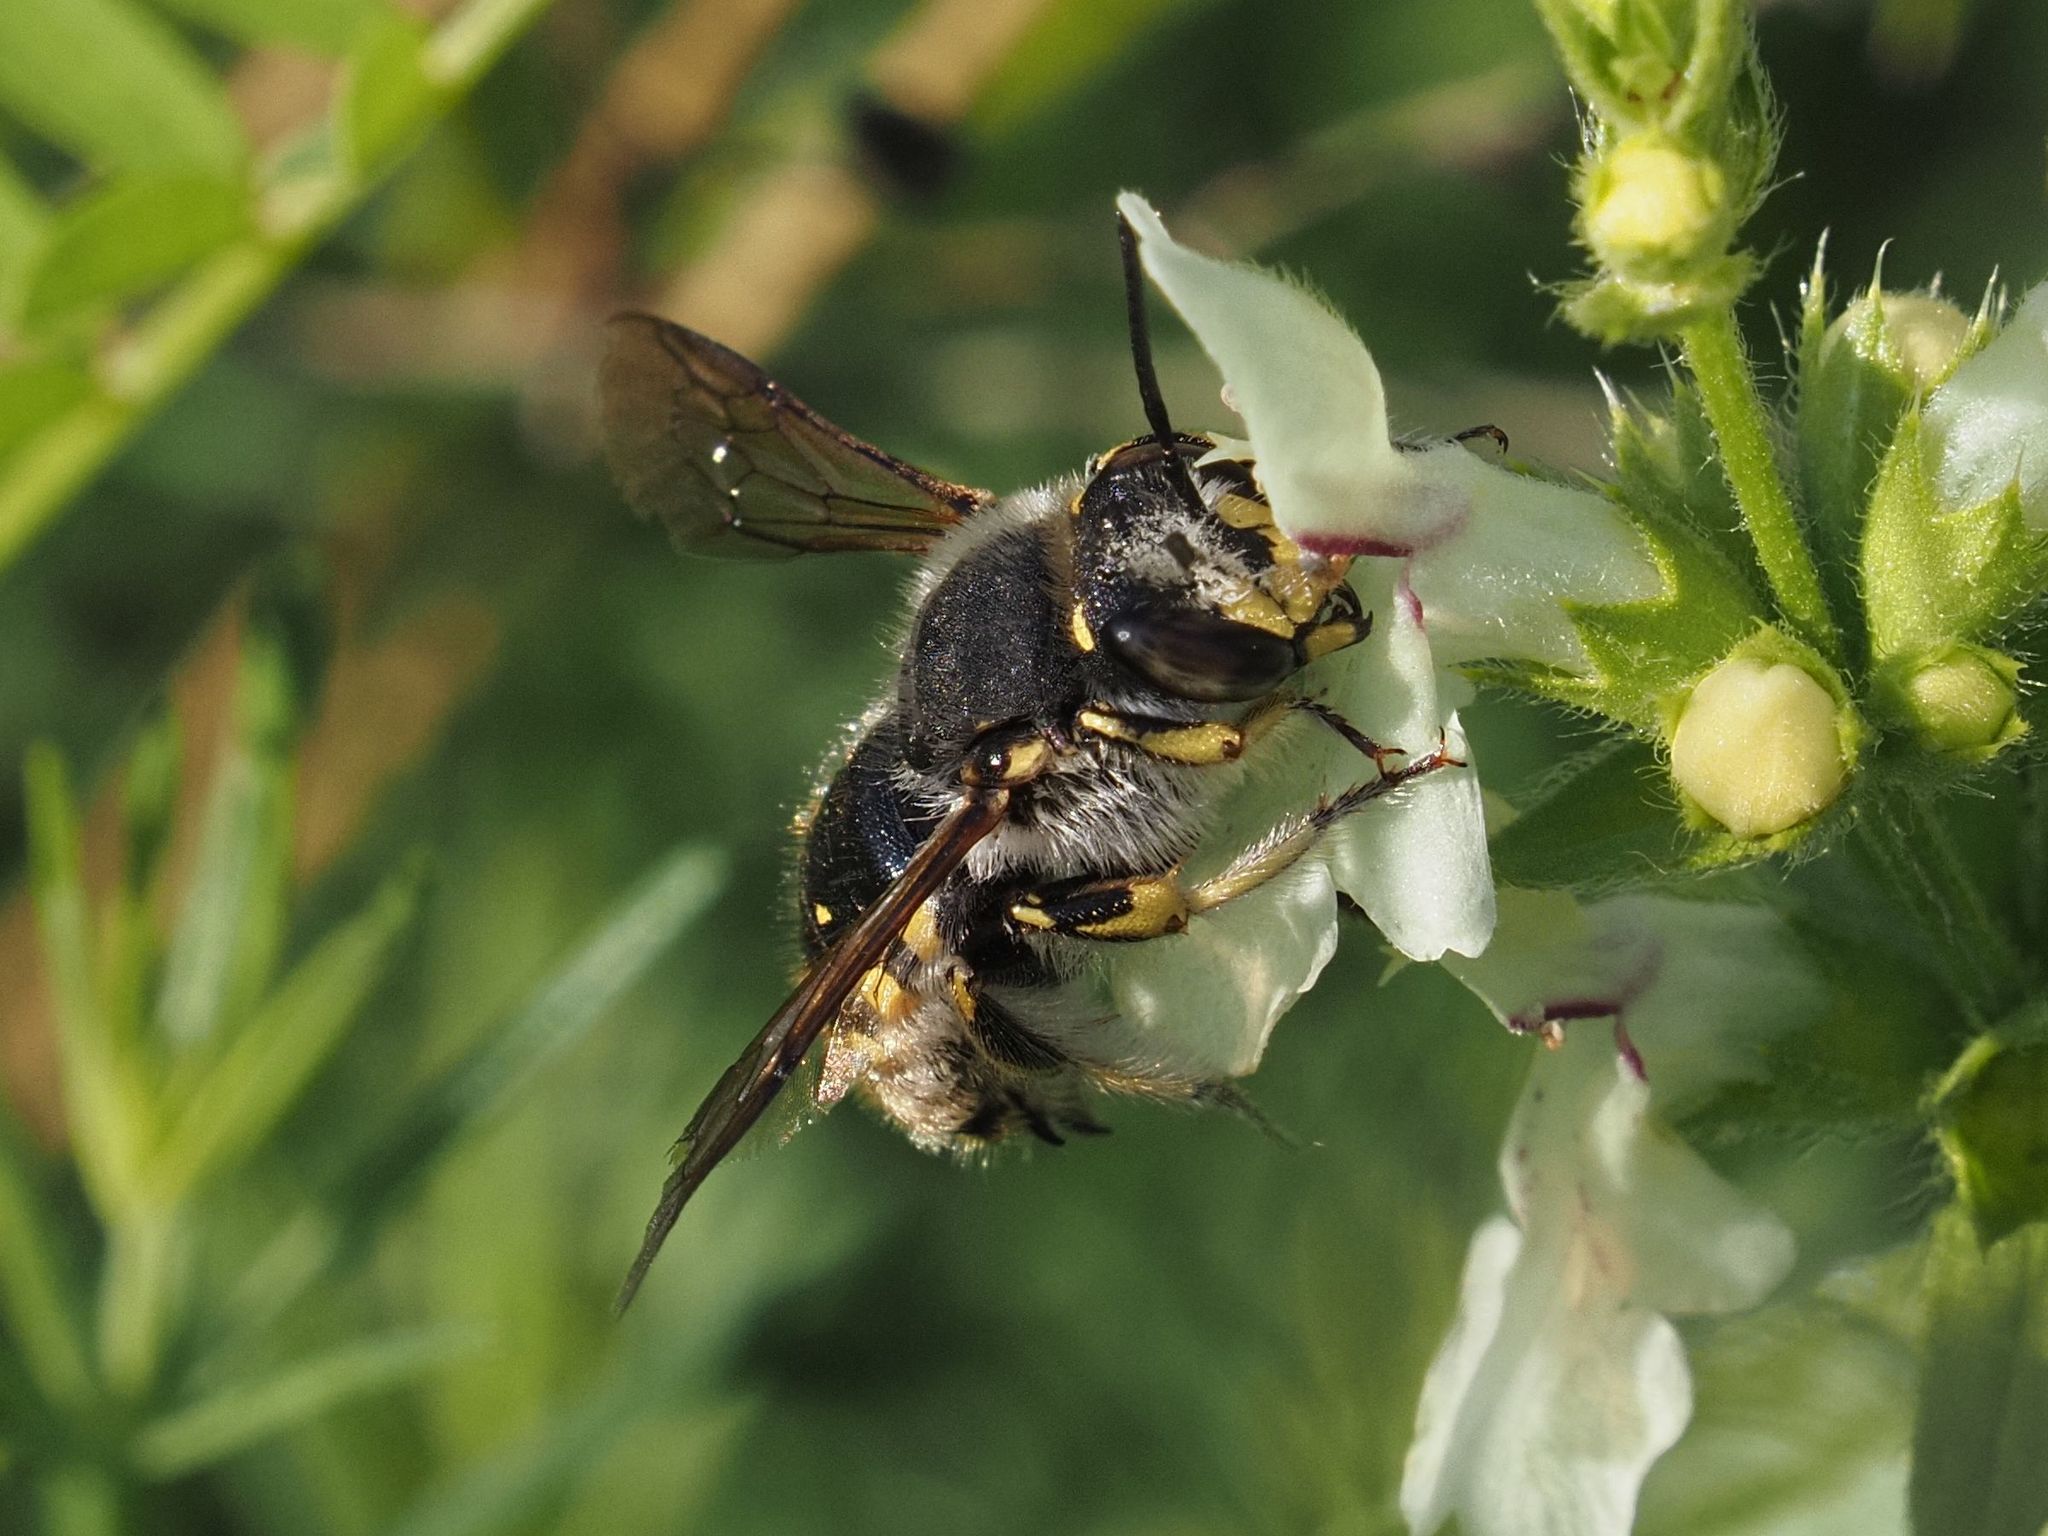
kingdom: Animalia
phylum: Arthropoda
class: Insecta
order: Hymenoptera
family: Megachilidae
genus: Anthidium
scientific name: Anthidium manicatum
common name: Wool carder bee
